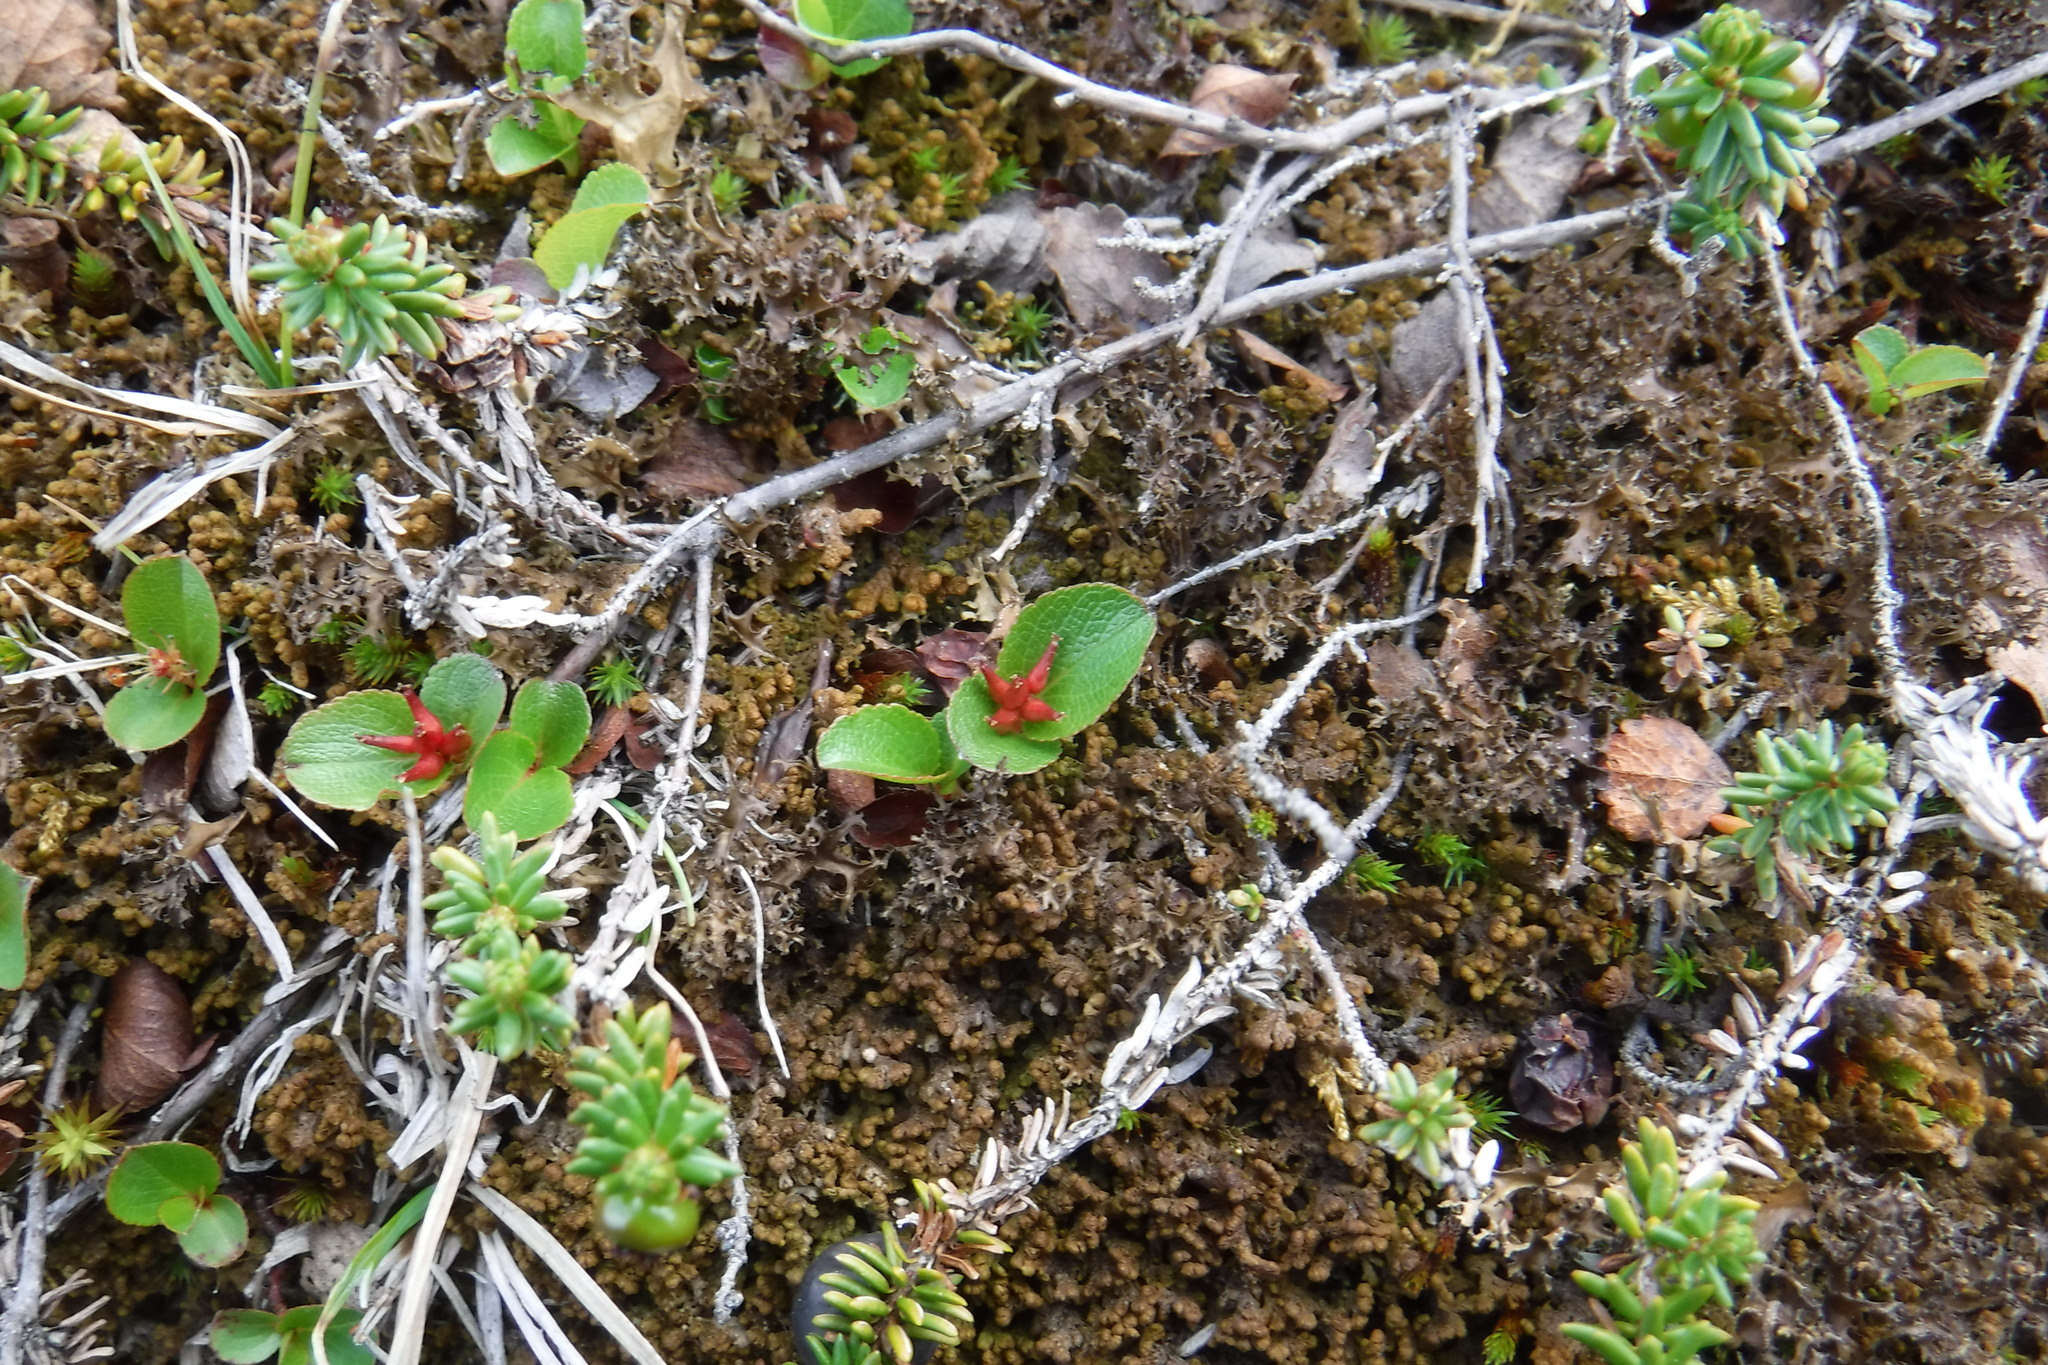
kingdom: Plantae
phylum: Tracheophyta
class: Magnoliopsida
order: Malpighiales
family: Salicaceae
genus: Salix
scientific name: Salix herbacea
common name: Dwarf willow
